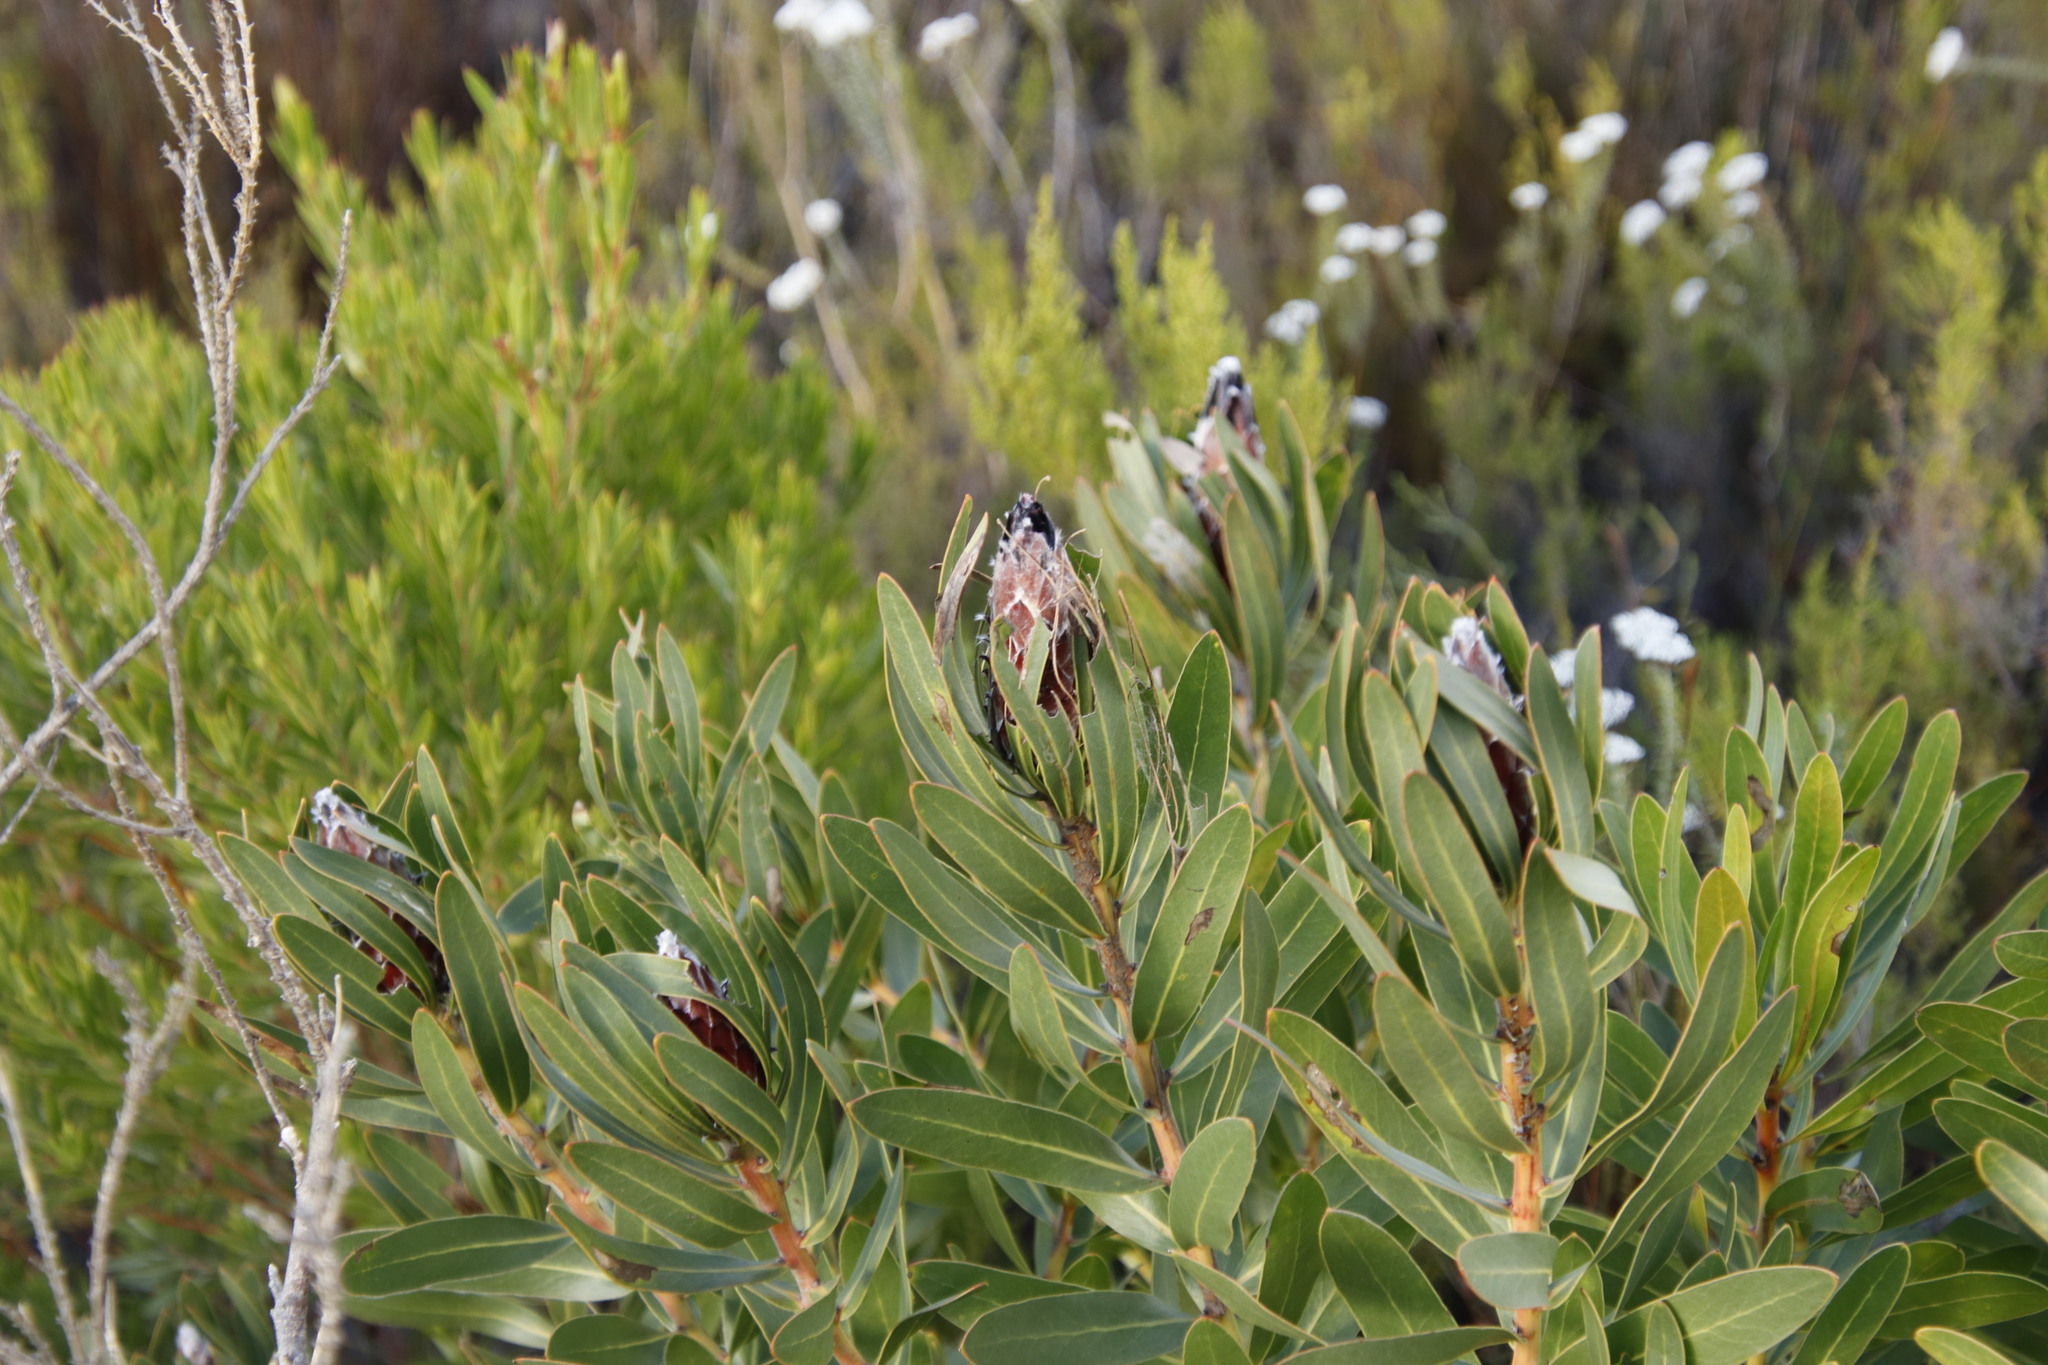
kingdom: Plantae
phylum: Tracheophyta
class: Magnoliopsida
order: Proteales
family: Proteaceae
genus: Protea
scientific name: Protea lepidocarpodendron
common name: Black-bearded protea
